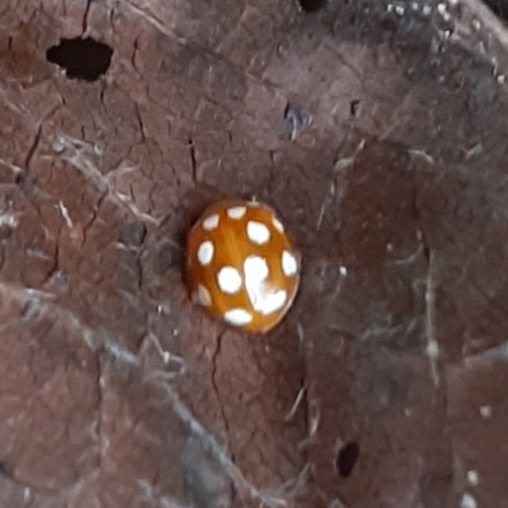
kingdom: Animalia
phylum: Arthropoda
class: Insecta
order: Coleoptera
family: Coccinellidae
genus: Vibidia
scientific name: Vibidia duodecimguttata
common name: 12-spot ladybird
